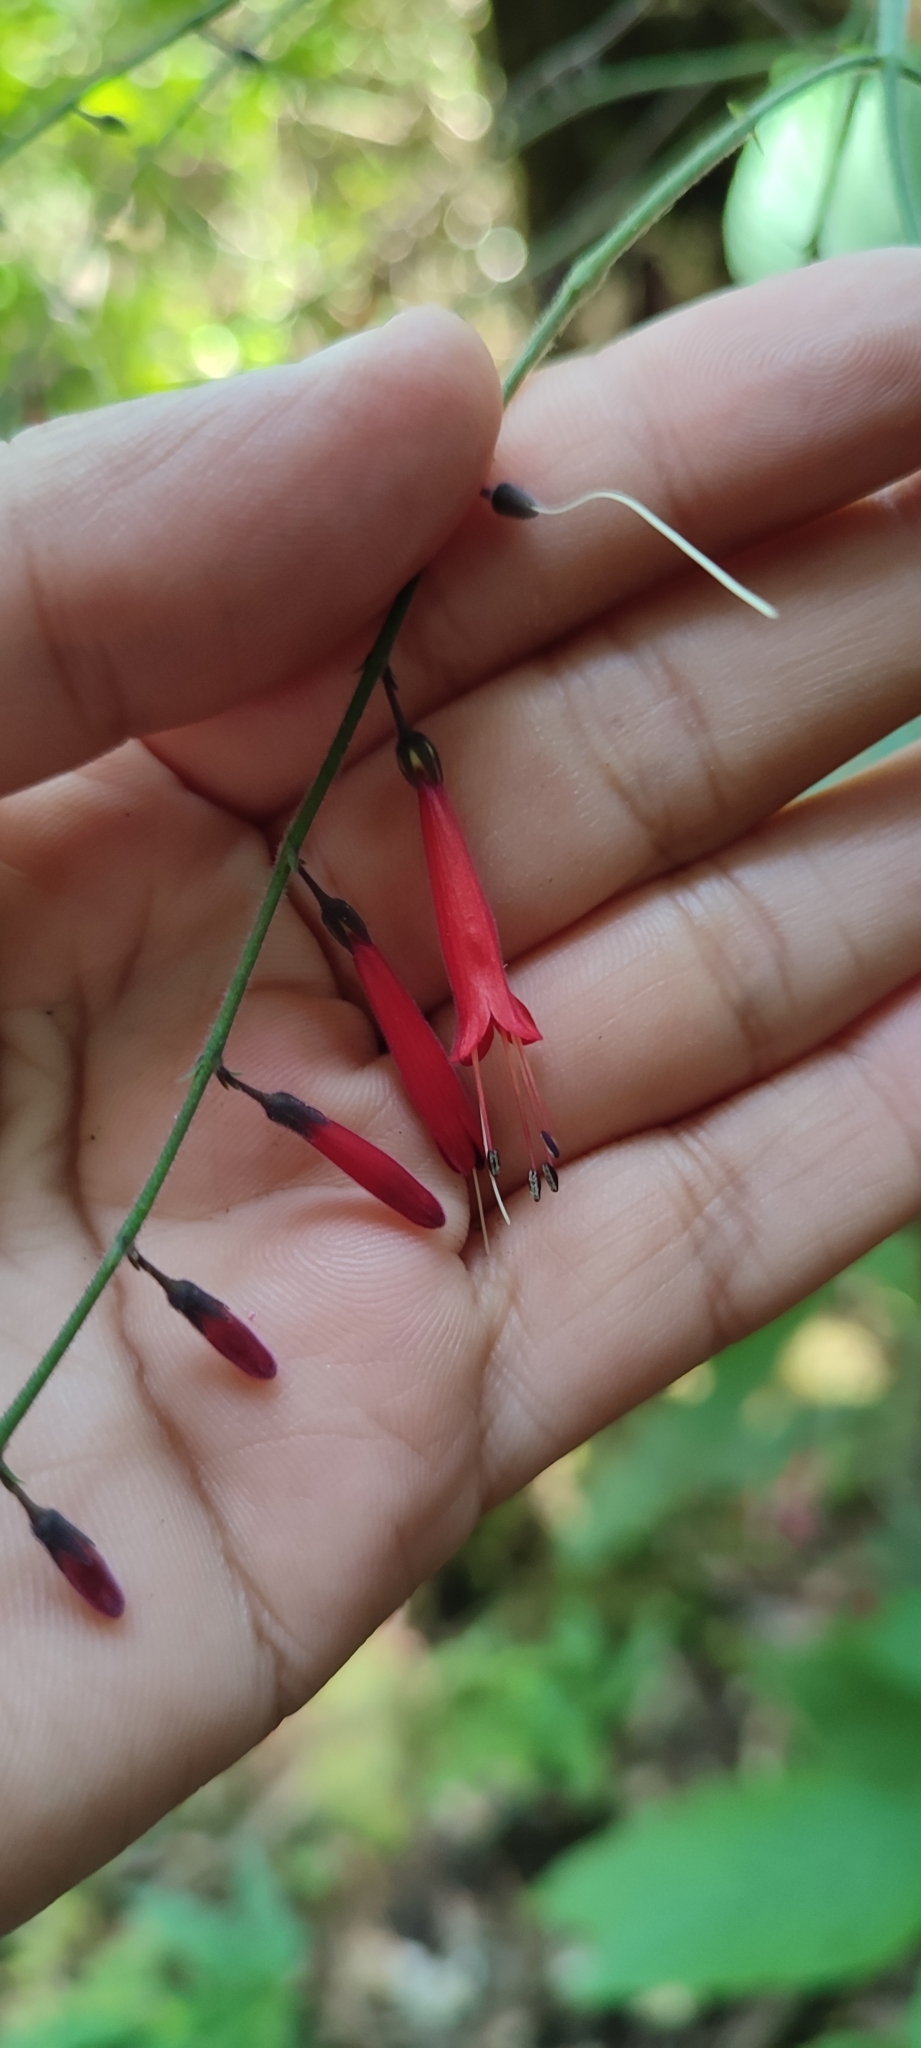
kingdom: Plantae
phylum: Tracheophyta
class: Magnoliopsida
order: Lamiales
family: Acanthaceae
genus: Chalarothyrsus
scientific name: Chalarothyrsus amplexicaulis
